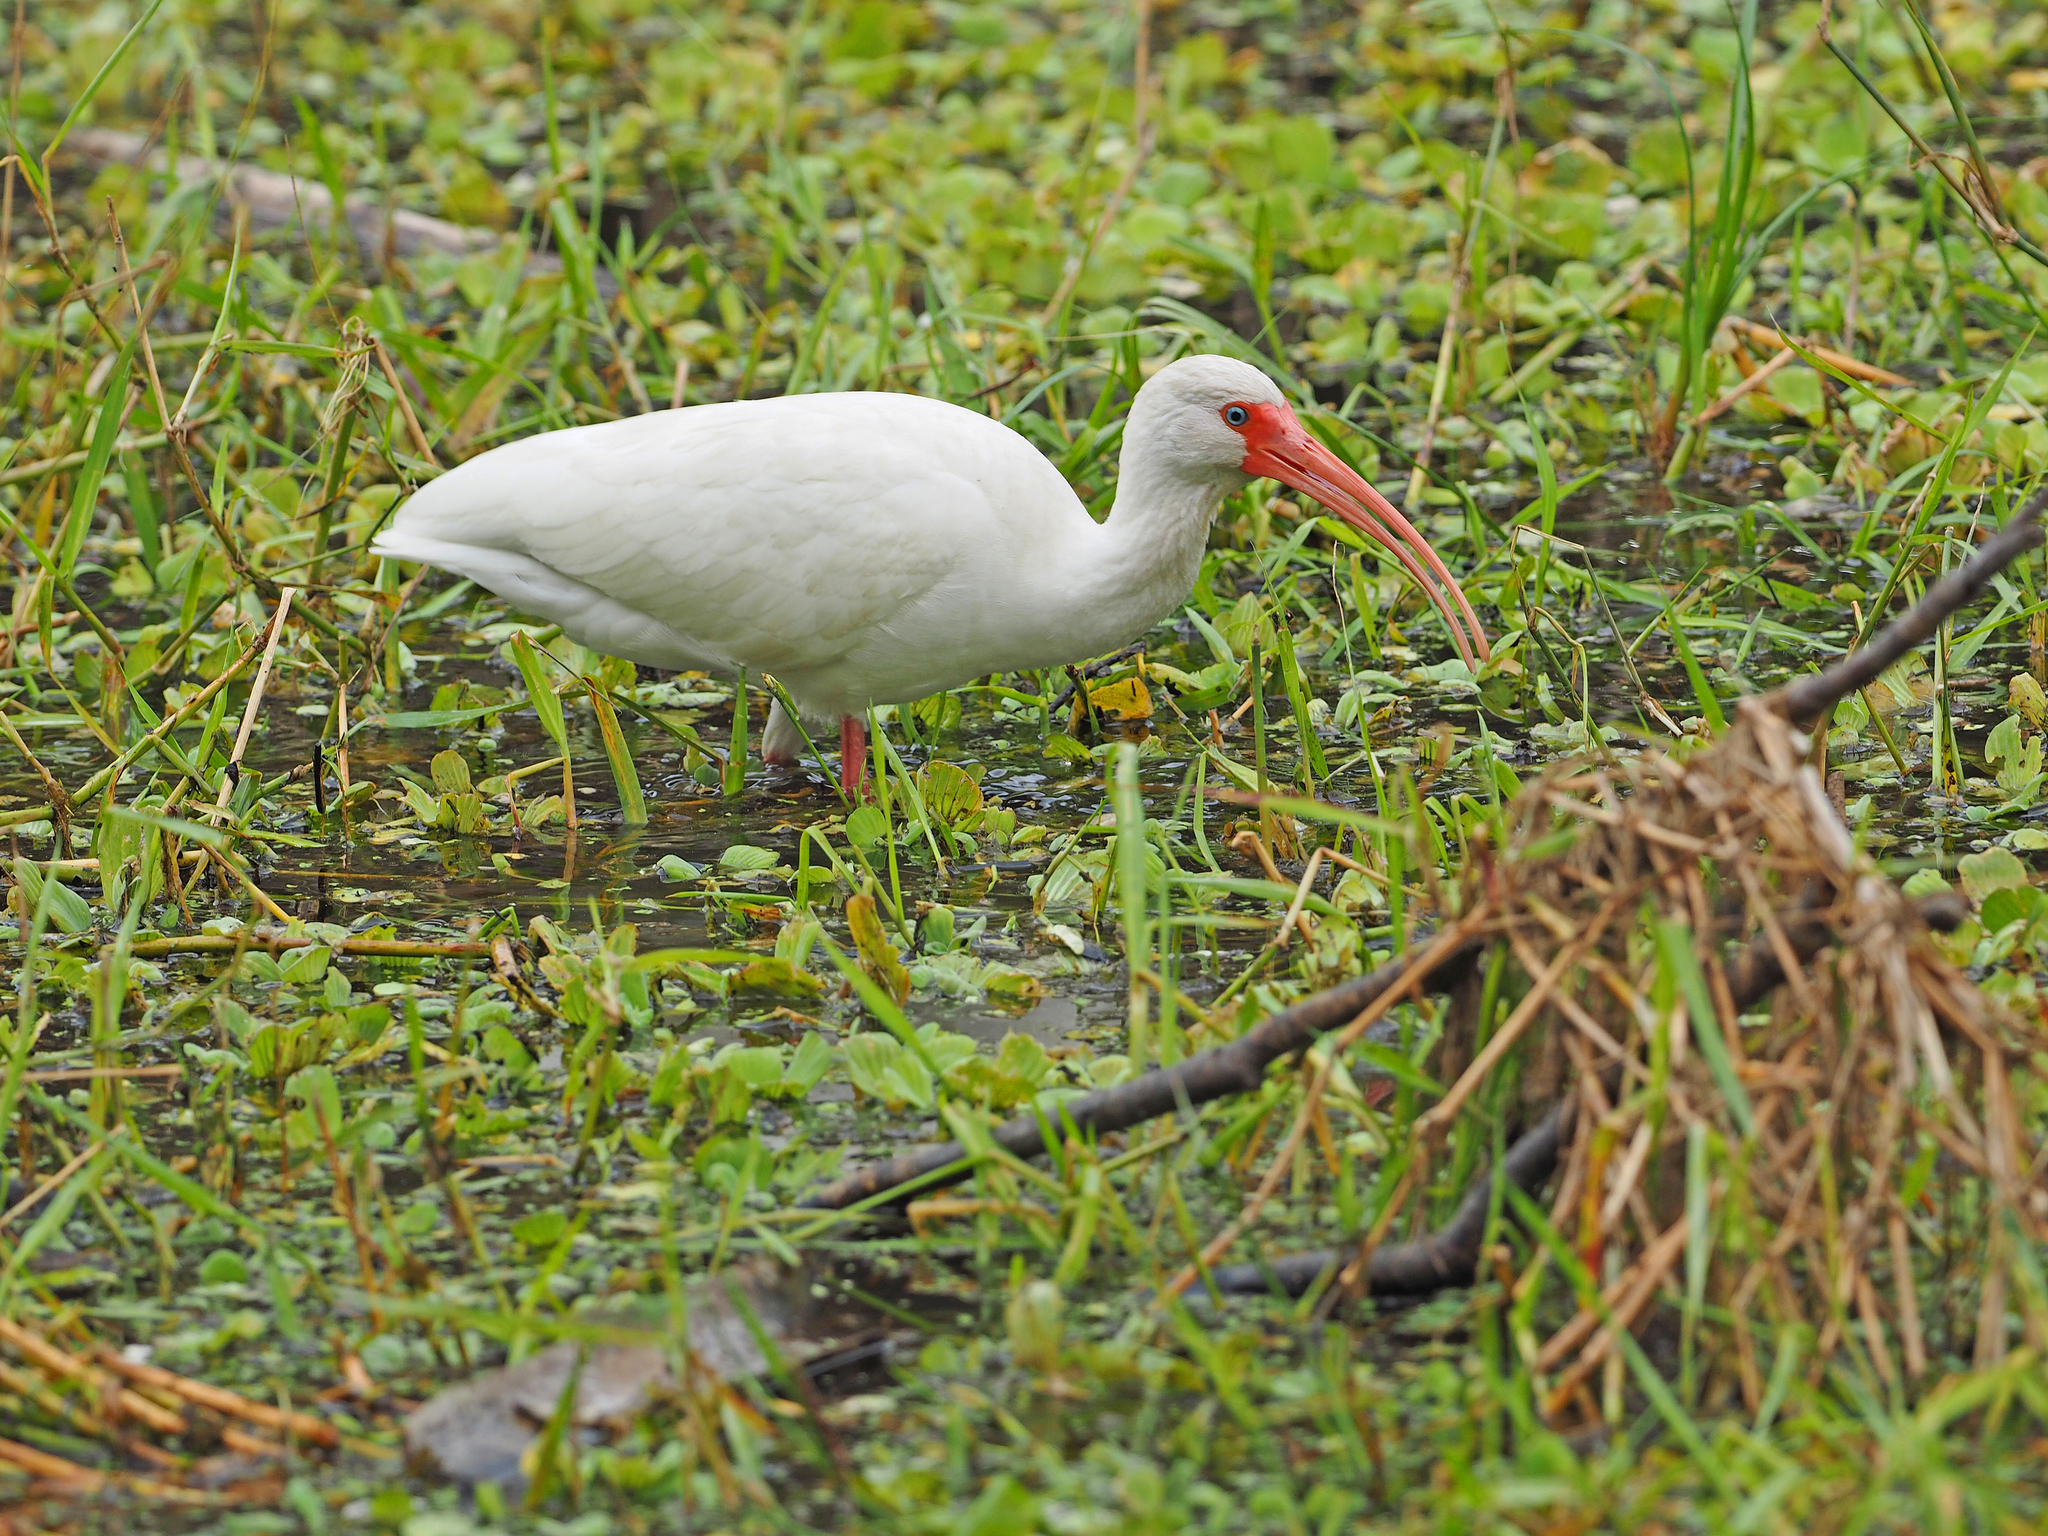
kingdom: Animalia
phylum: Chordata
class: Aves
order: Pelecaniformes
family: Threskiornithidae
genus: Eudocimus
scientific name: Eudocimus albus
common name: White ibis
